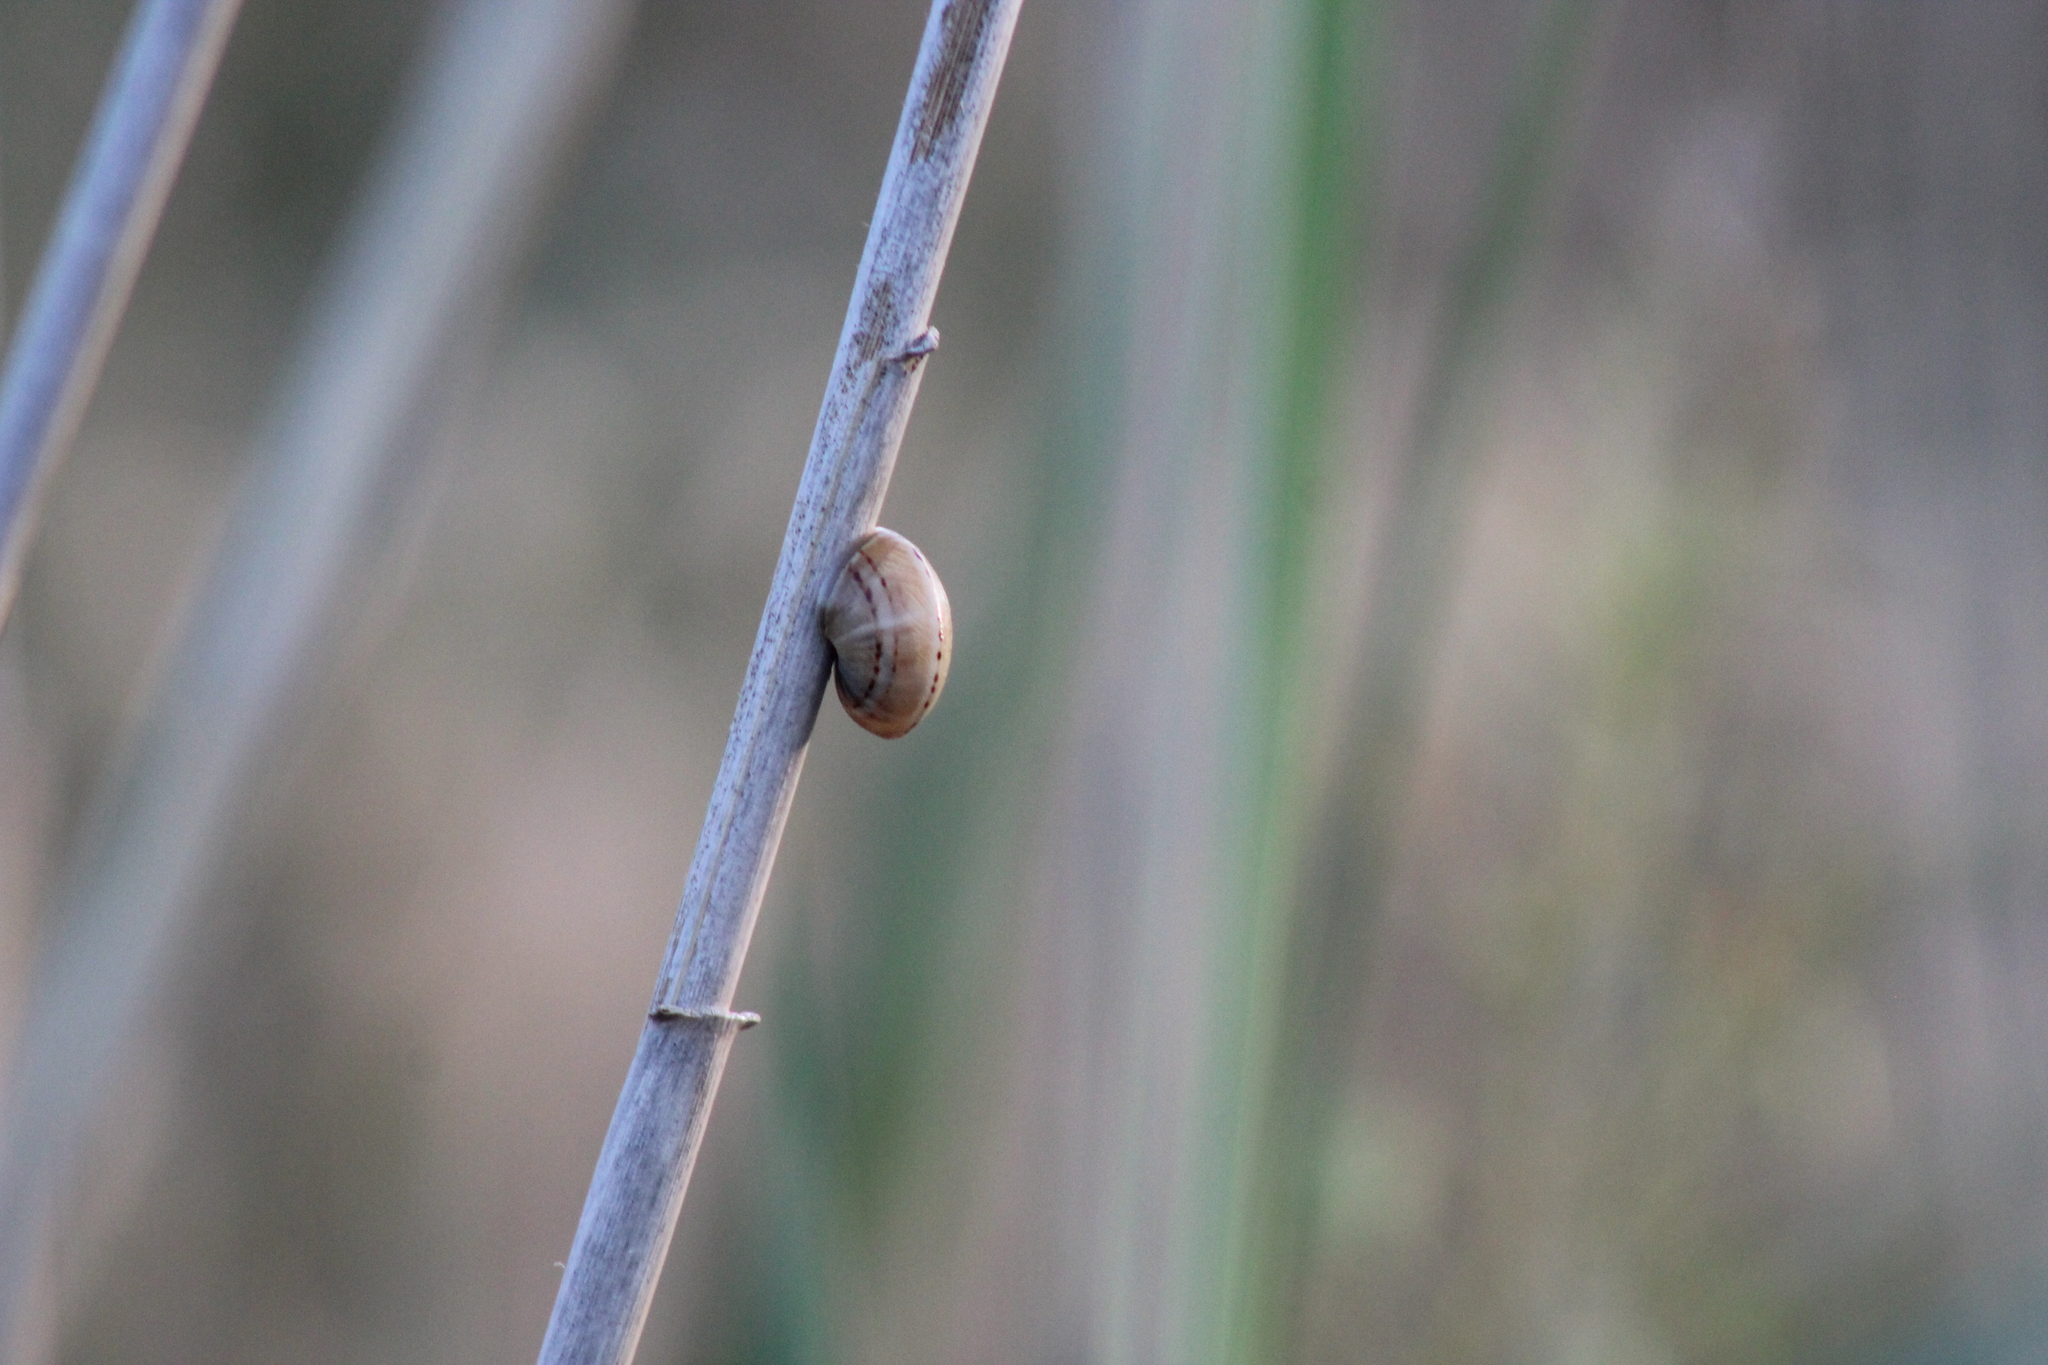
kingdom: Animalia
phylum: Mollusca
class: Gastropoda
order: Stylommatophora
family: Helicidae
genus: Theba
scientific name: Theba pisana
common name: White snail
